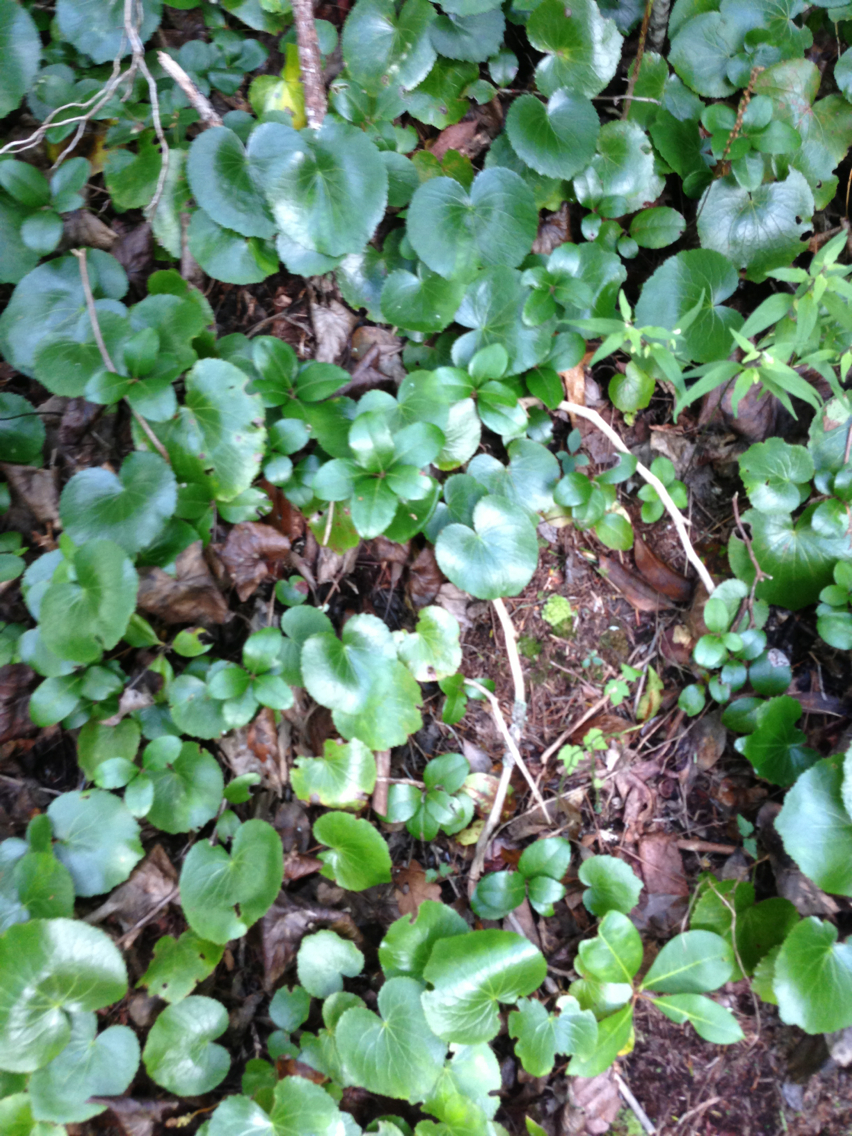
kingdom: Plantae
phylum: Tracheophyta
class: Magnoliopsida
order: Ericales
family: Diapensiaceae
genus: Galax
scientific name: Galax urceolata
